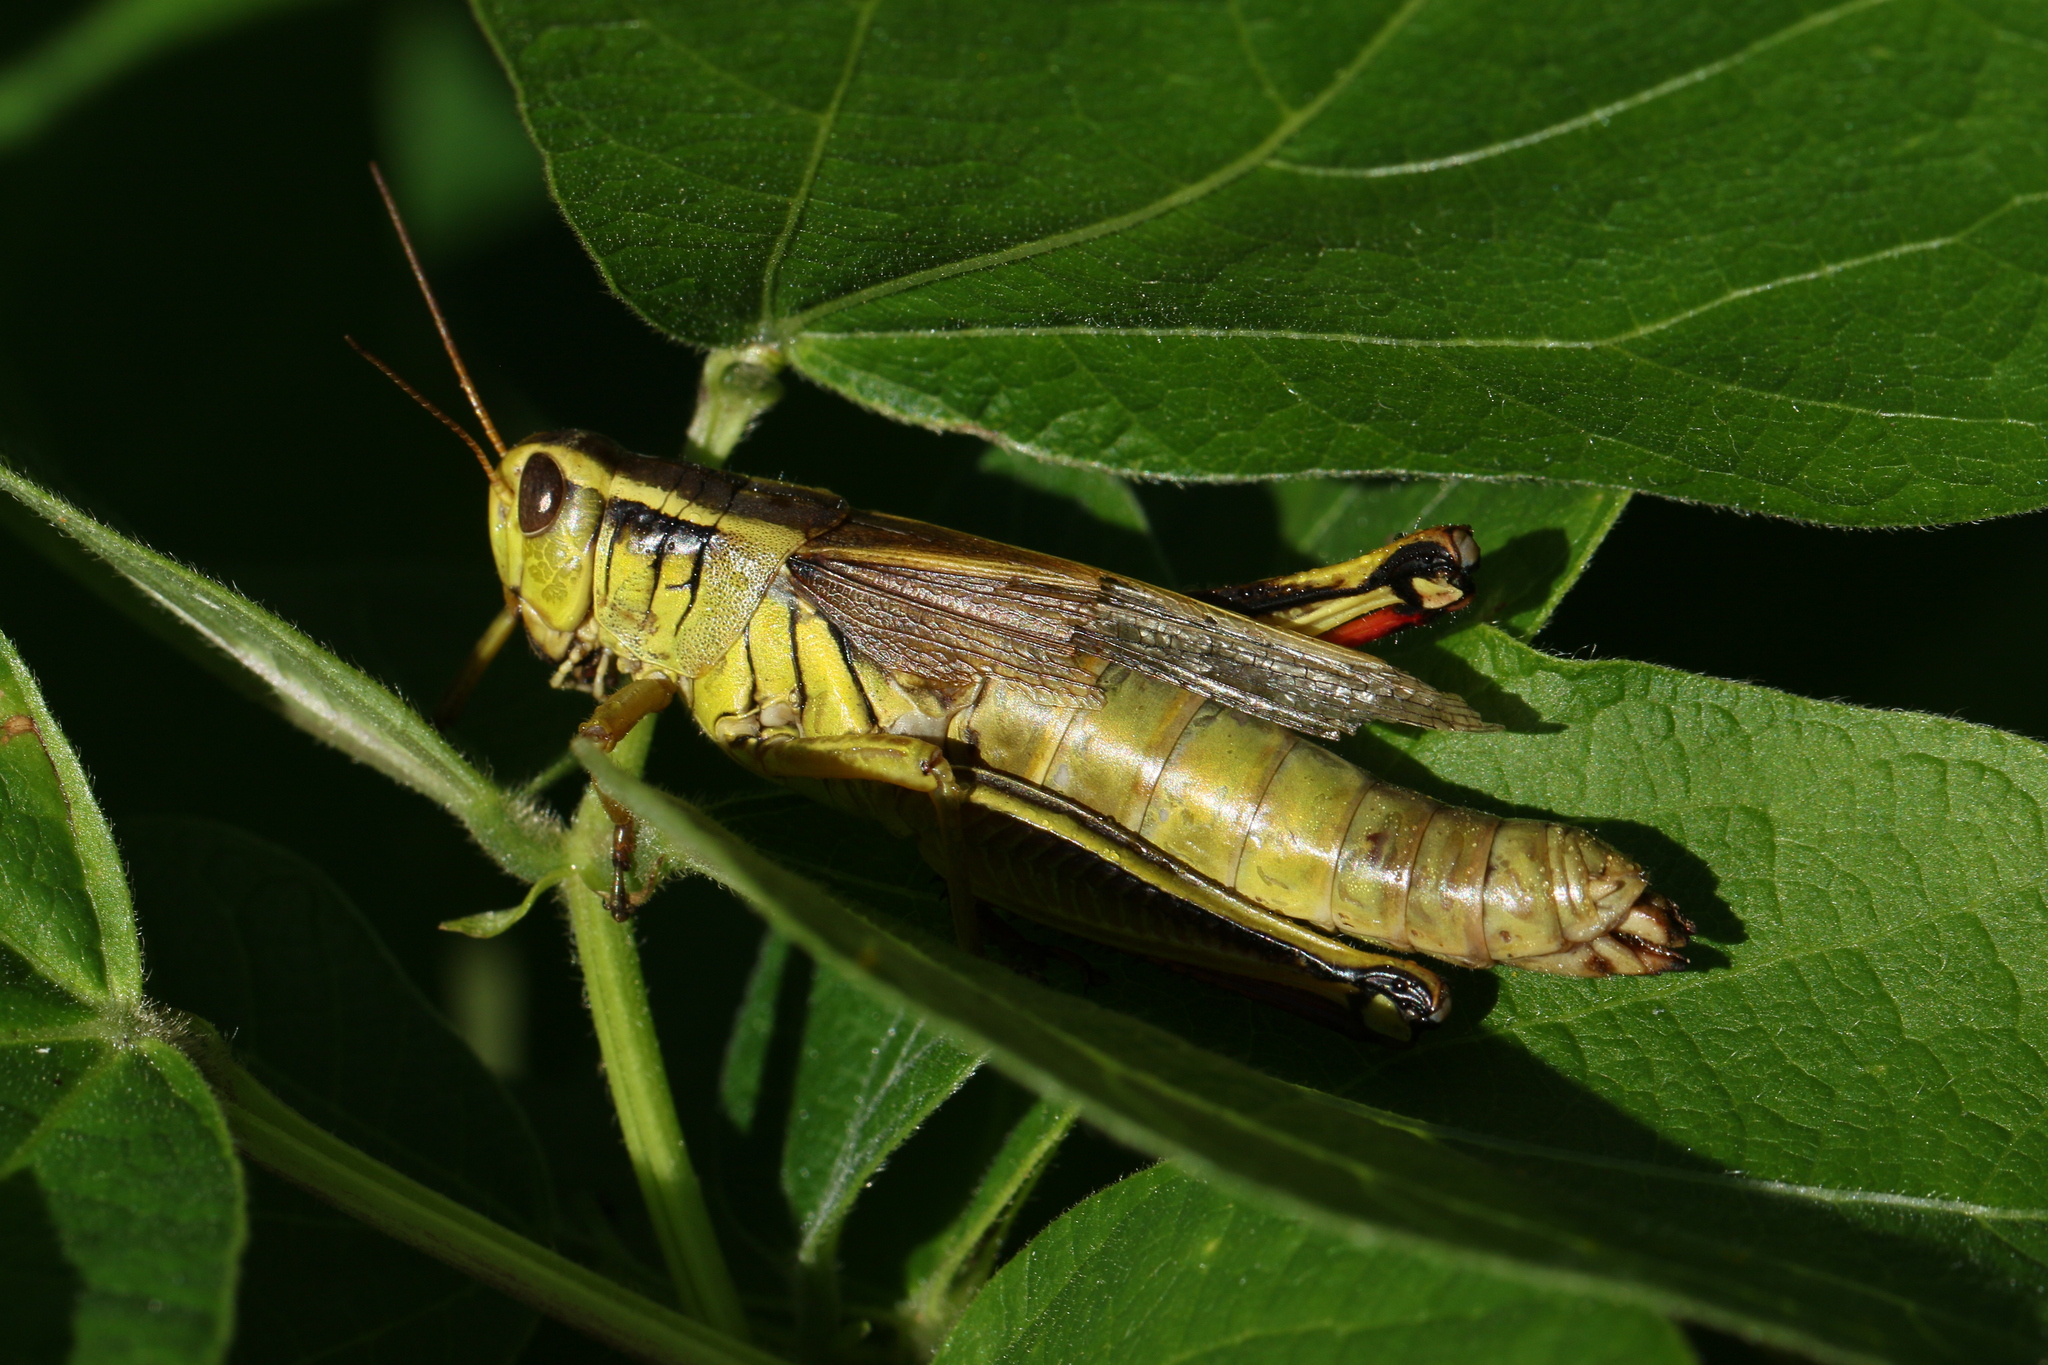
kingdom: Animalia
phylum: Arthropoda
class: Insecta
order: Orthoptera
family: Acrididae
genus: Melanoplus
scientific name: Melanoplus bivittatus
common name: Two-striped grasshopper
